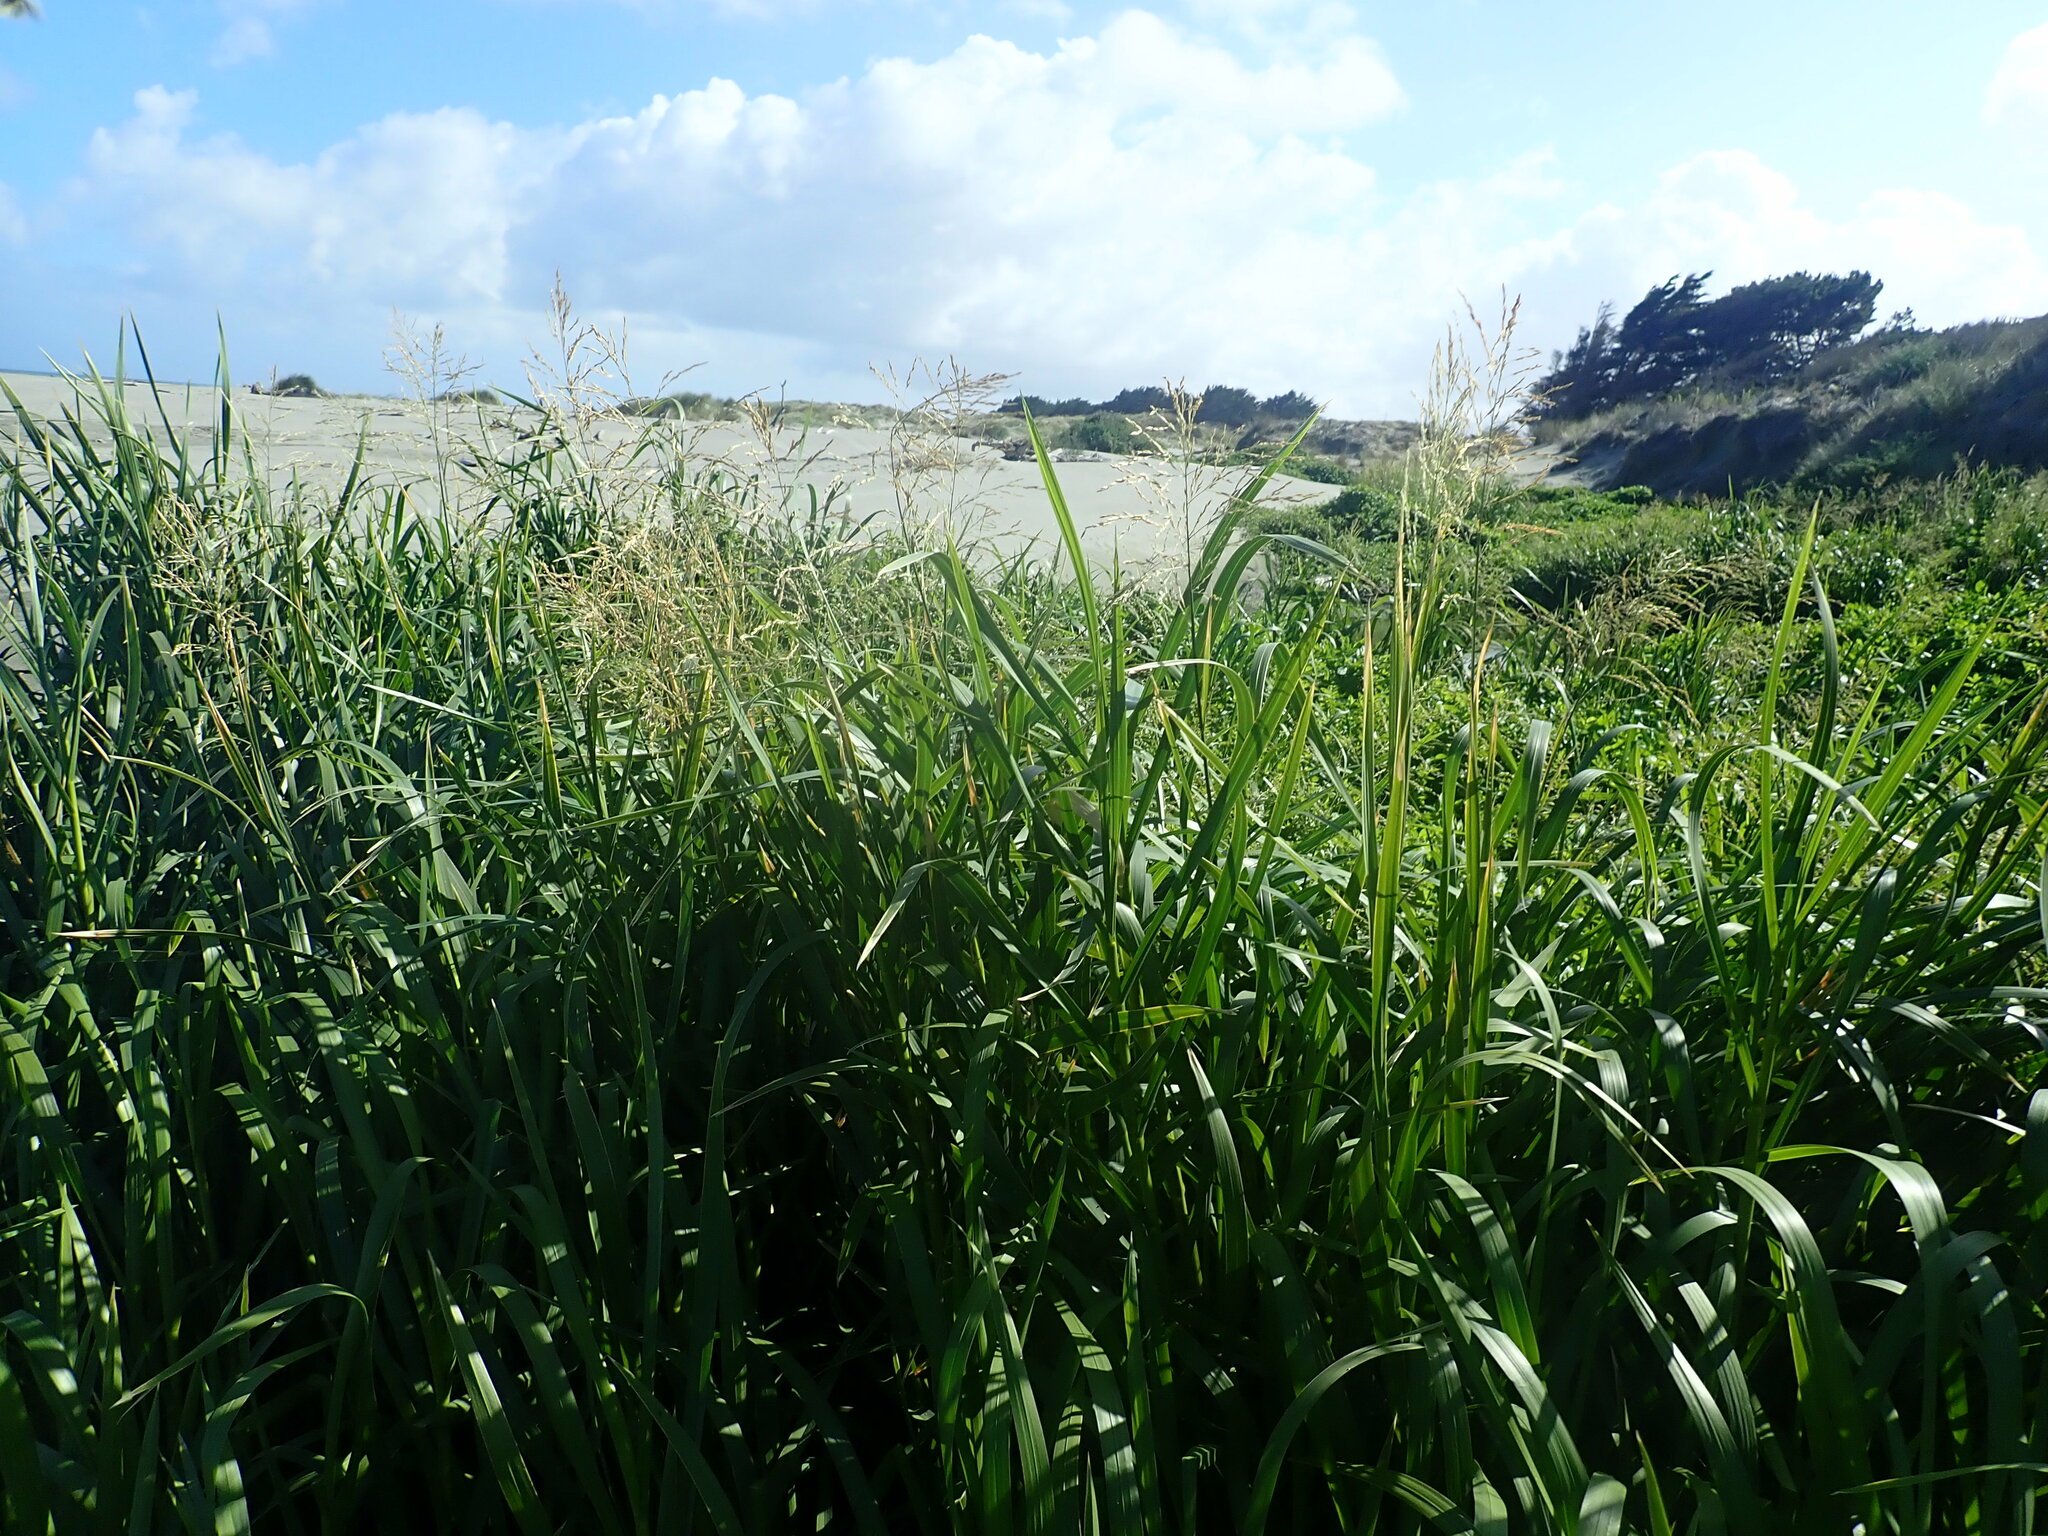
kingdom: Plantae
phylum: Tracheophyta
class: Liliopsida
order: Poales
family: Poaceae
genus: Glyceria
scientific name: Glyceria maxima
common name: Reed mannagrass
